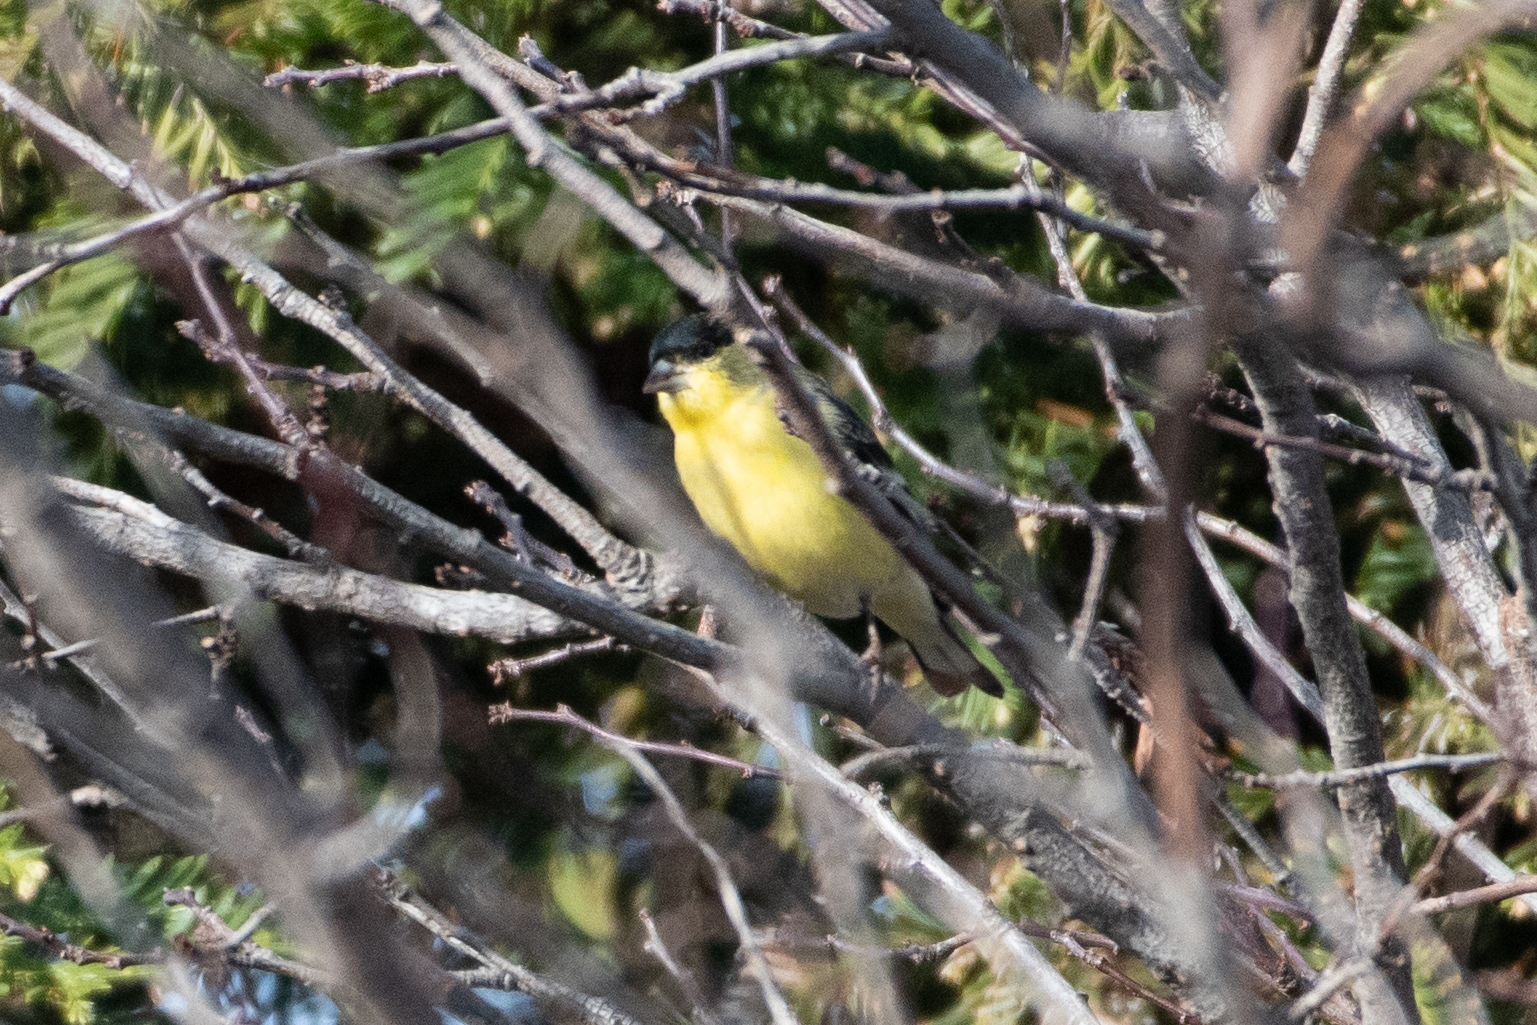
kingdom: Animalia
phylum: Chordata
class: Aves
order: Passeriformes
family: Fringillidae
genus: Spinus
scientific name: Spinus psaltria
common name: Lesser goldfinch
